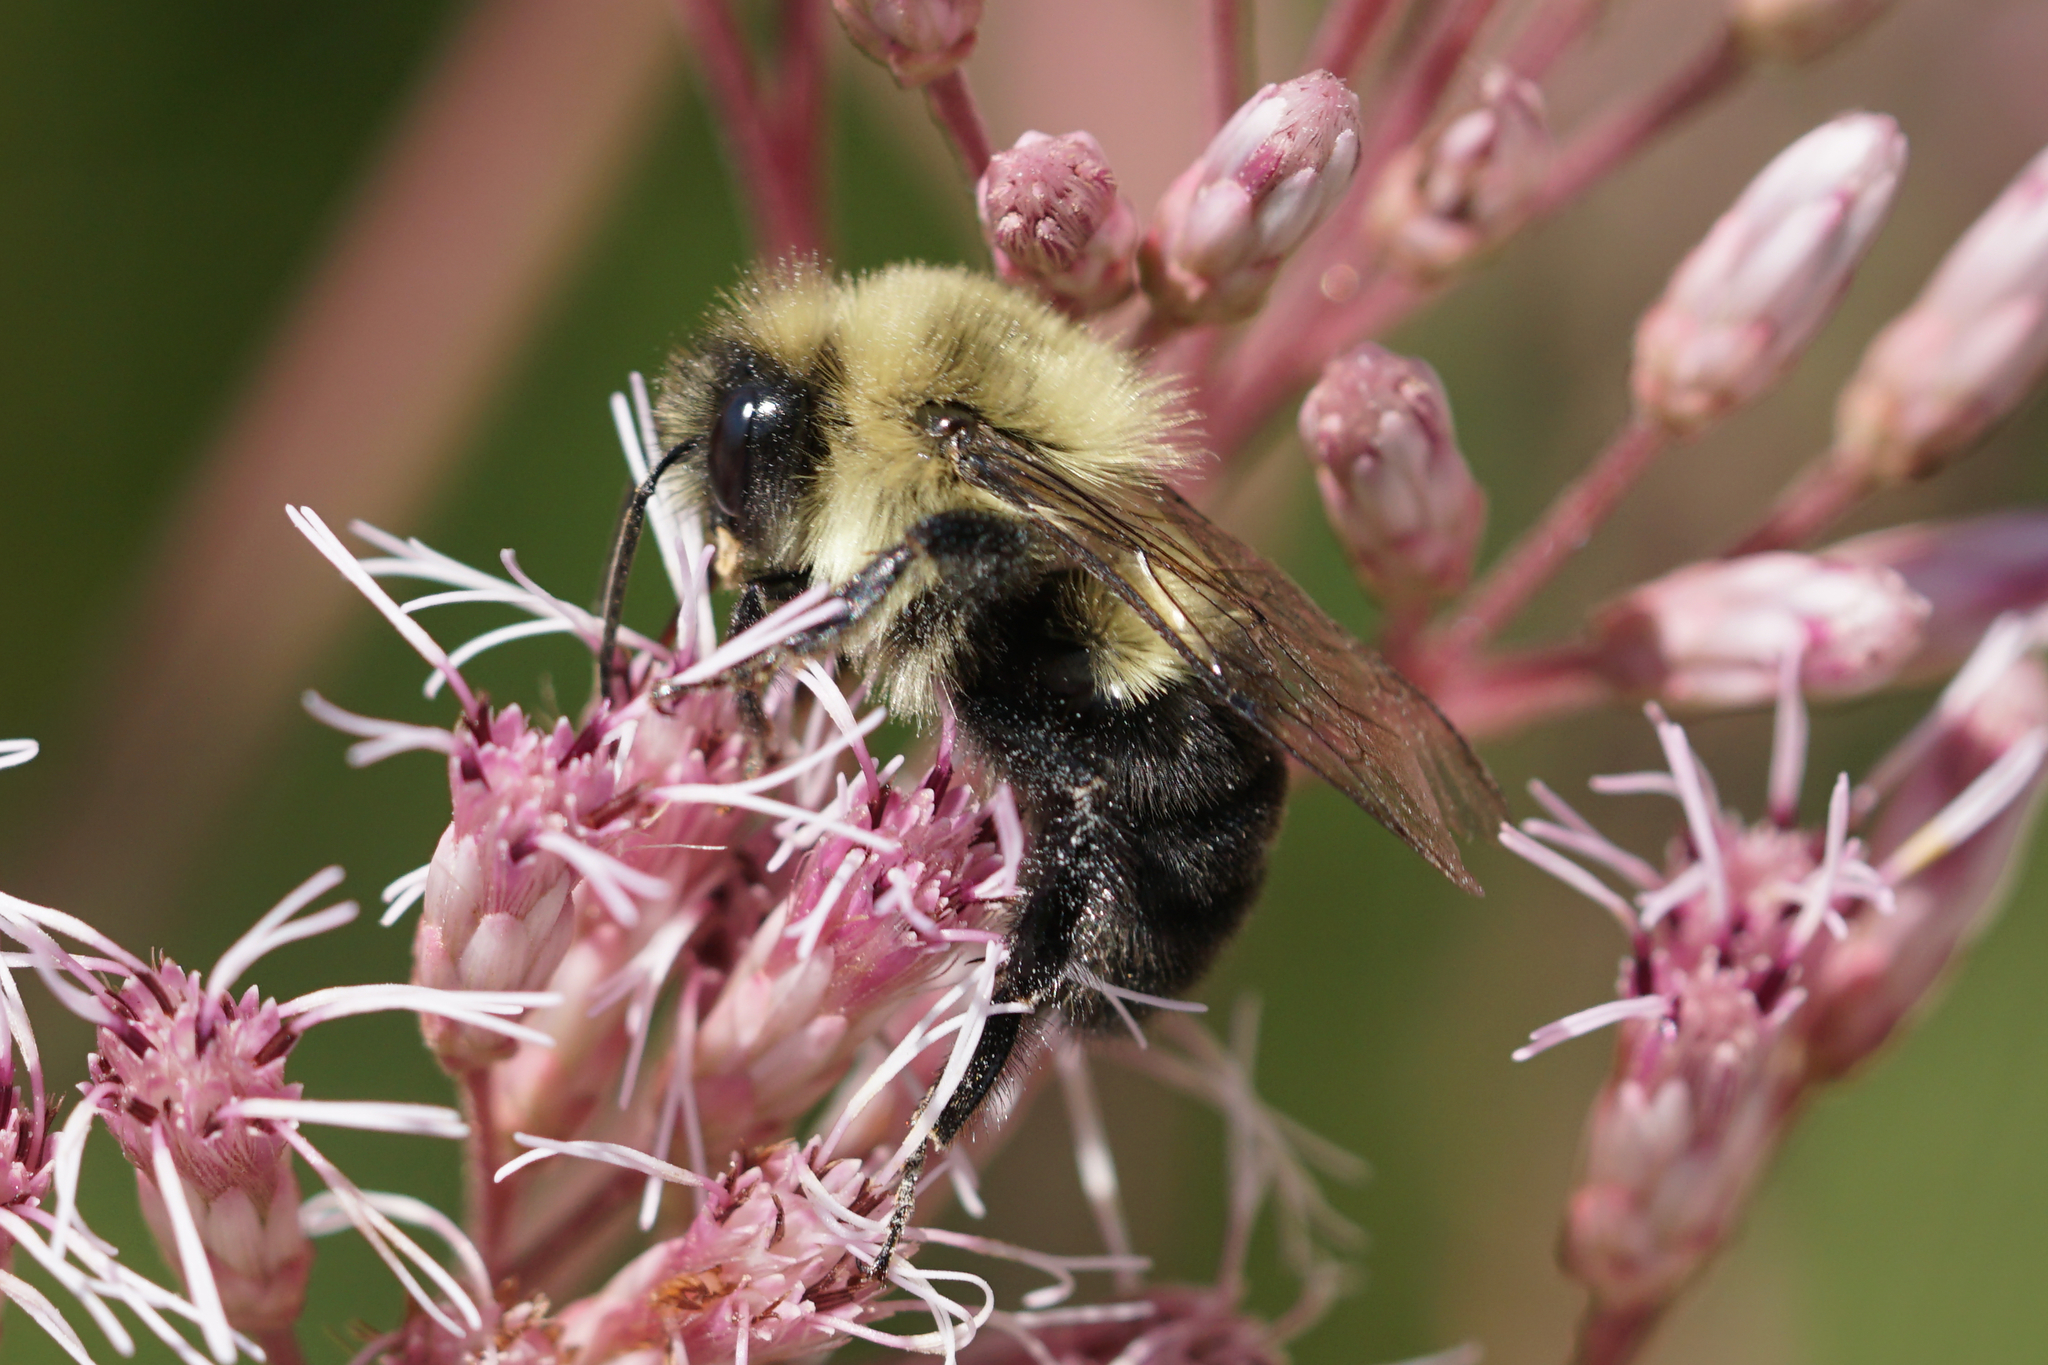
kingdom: Animalia
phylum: Arthropoda
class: Insecta
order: Hymenoptera
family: Apidae
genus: Bombus
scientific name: Bombus impatiens
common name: Common eastern bumble bee
